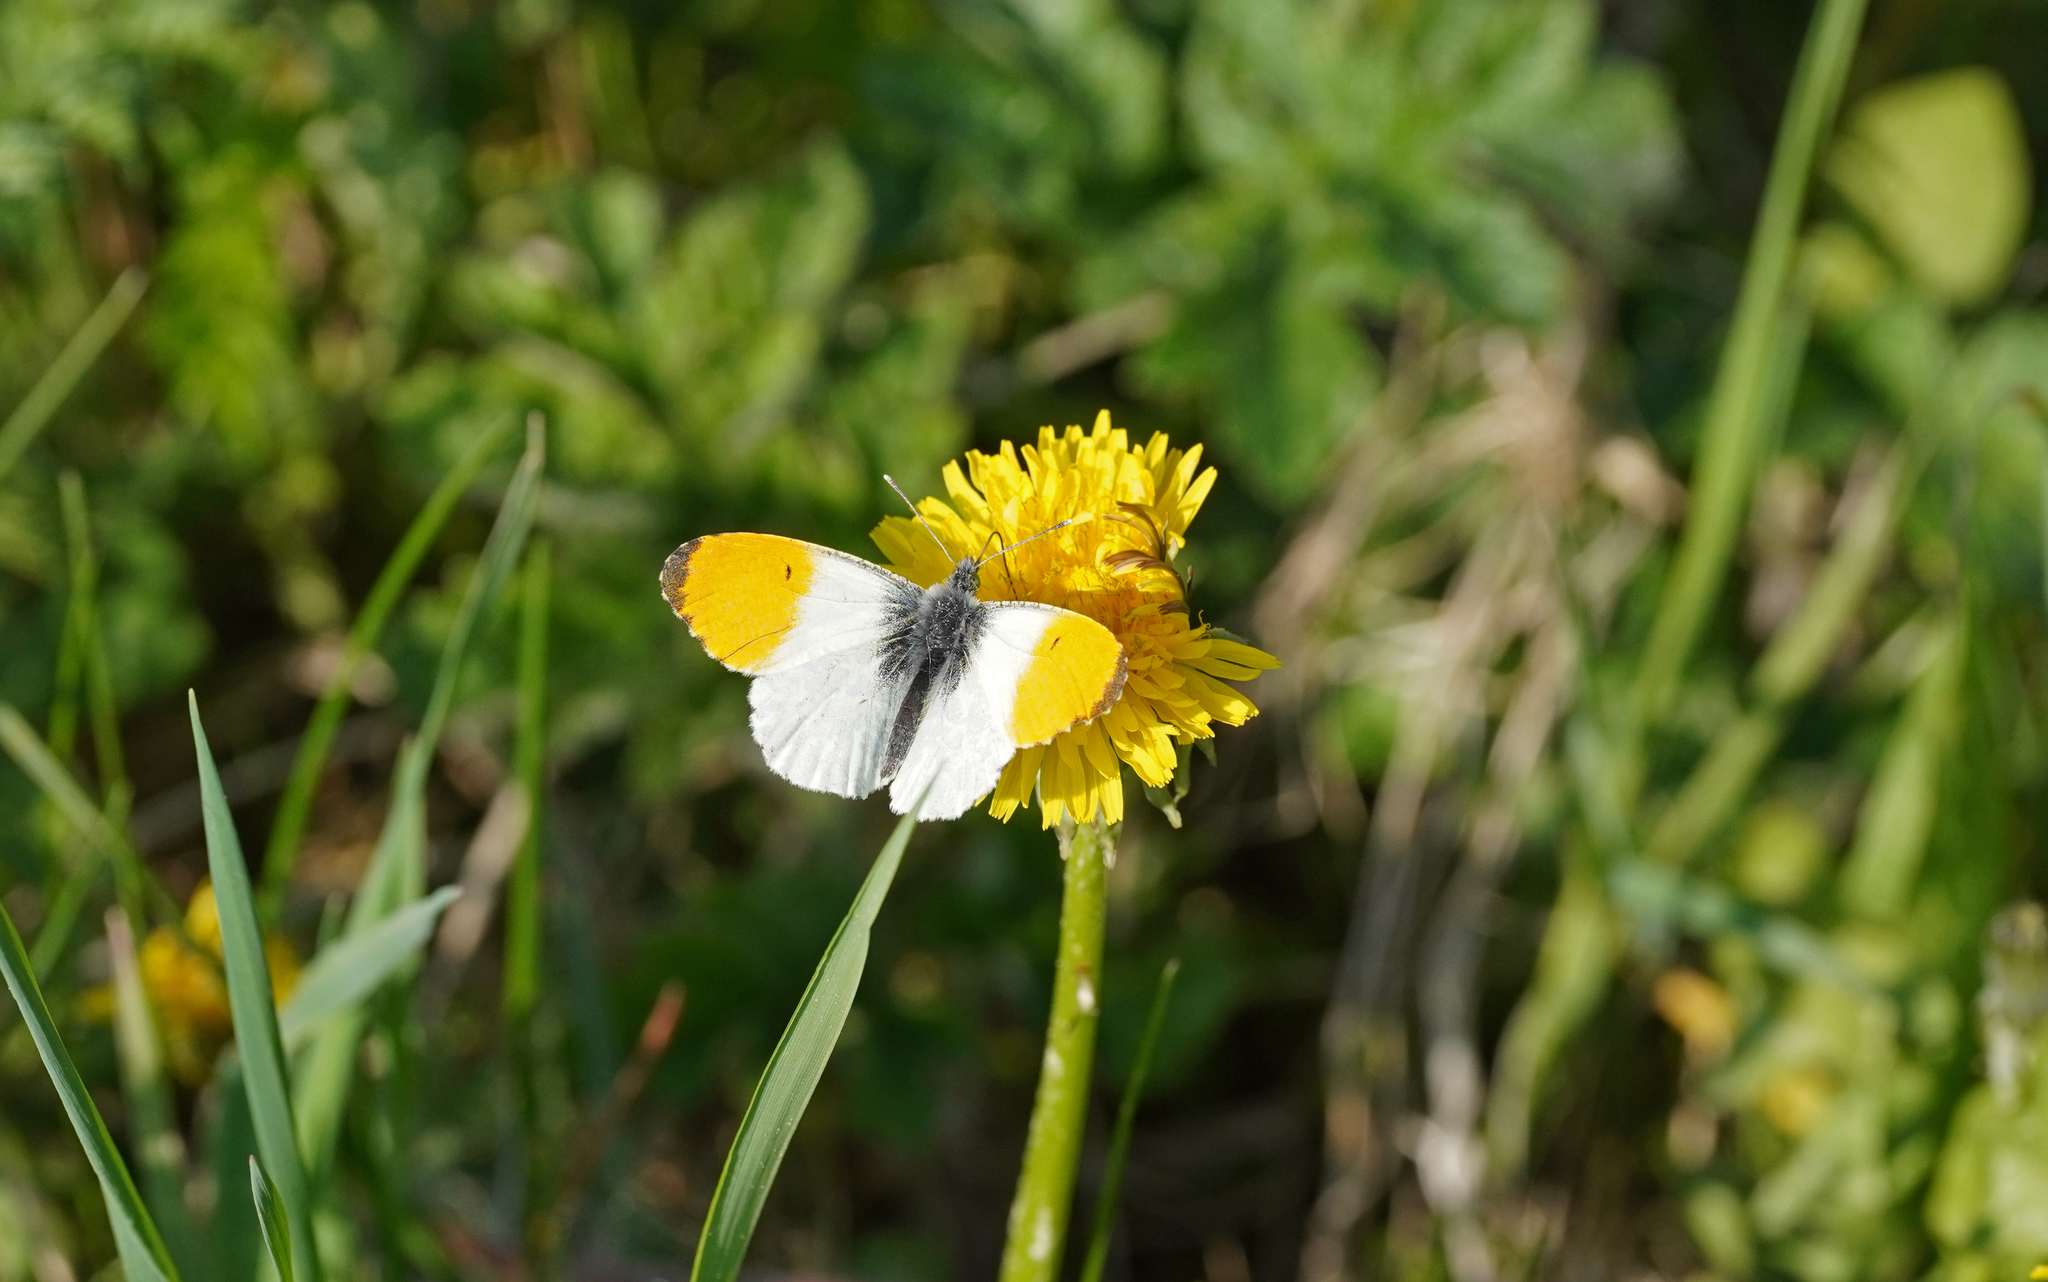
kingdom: Animalia
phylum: Arthropoda
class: Insecta
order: Lepidoptera
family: Pieridae
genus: Anthocharis
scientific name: Anthocharis cardamines
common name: Orange-tip
